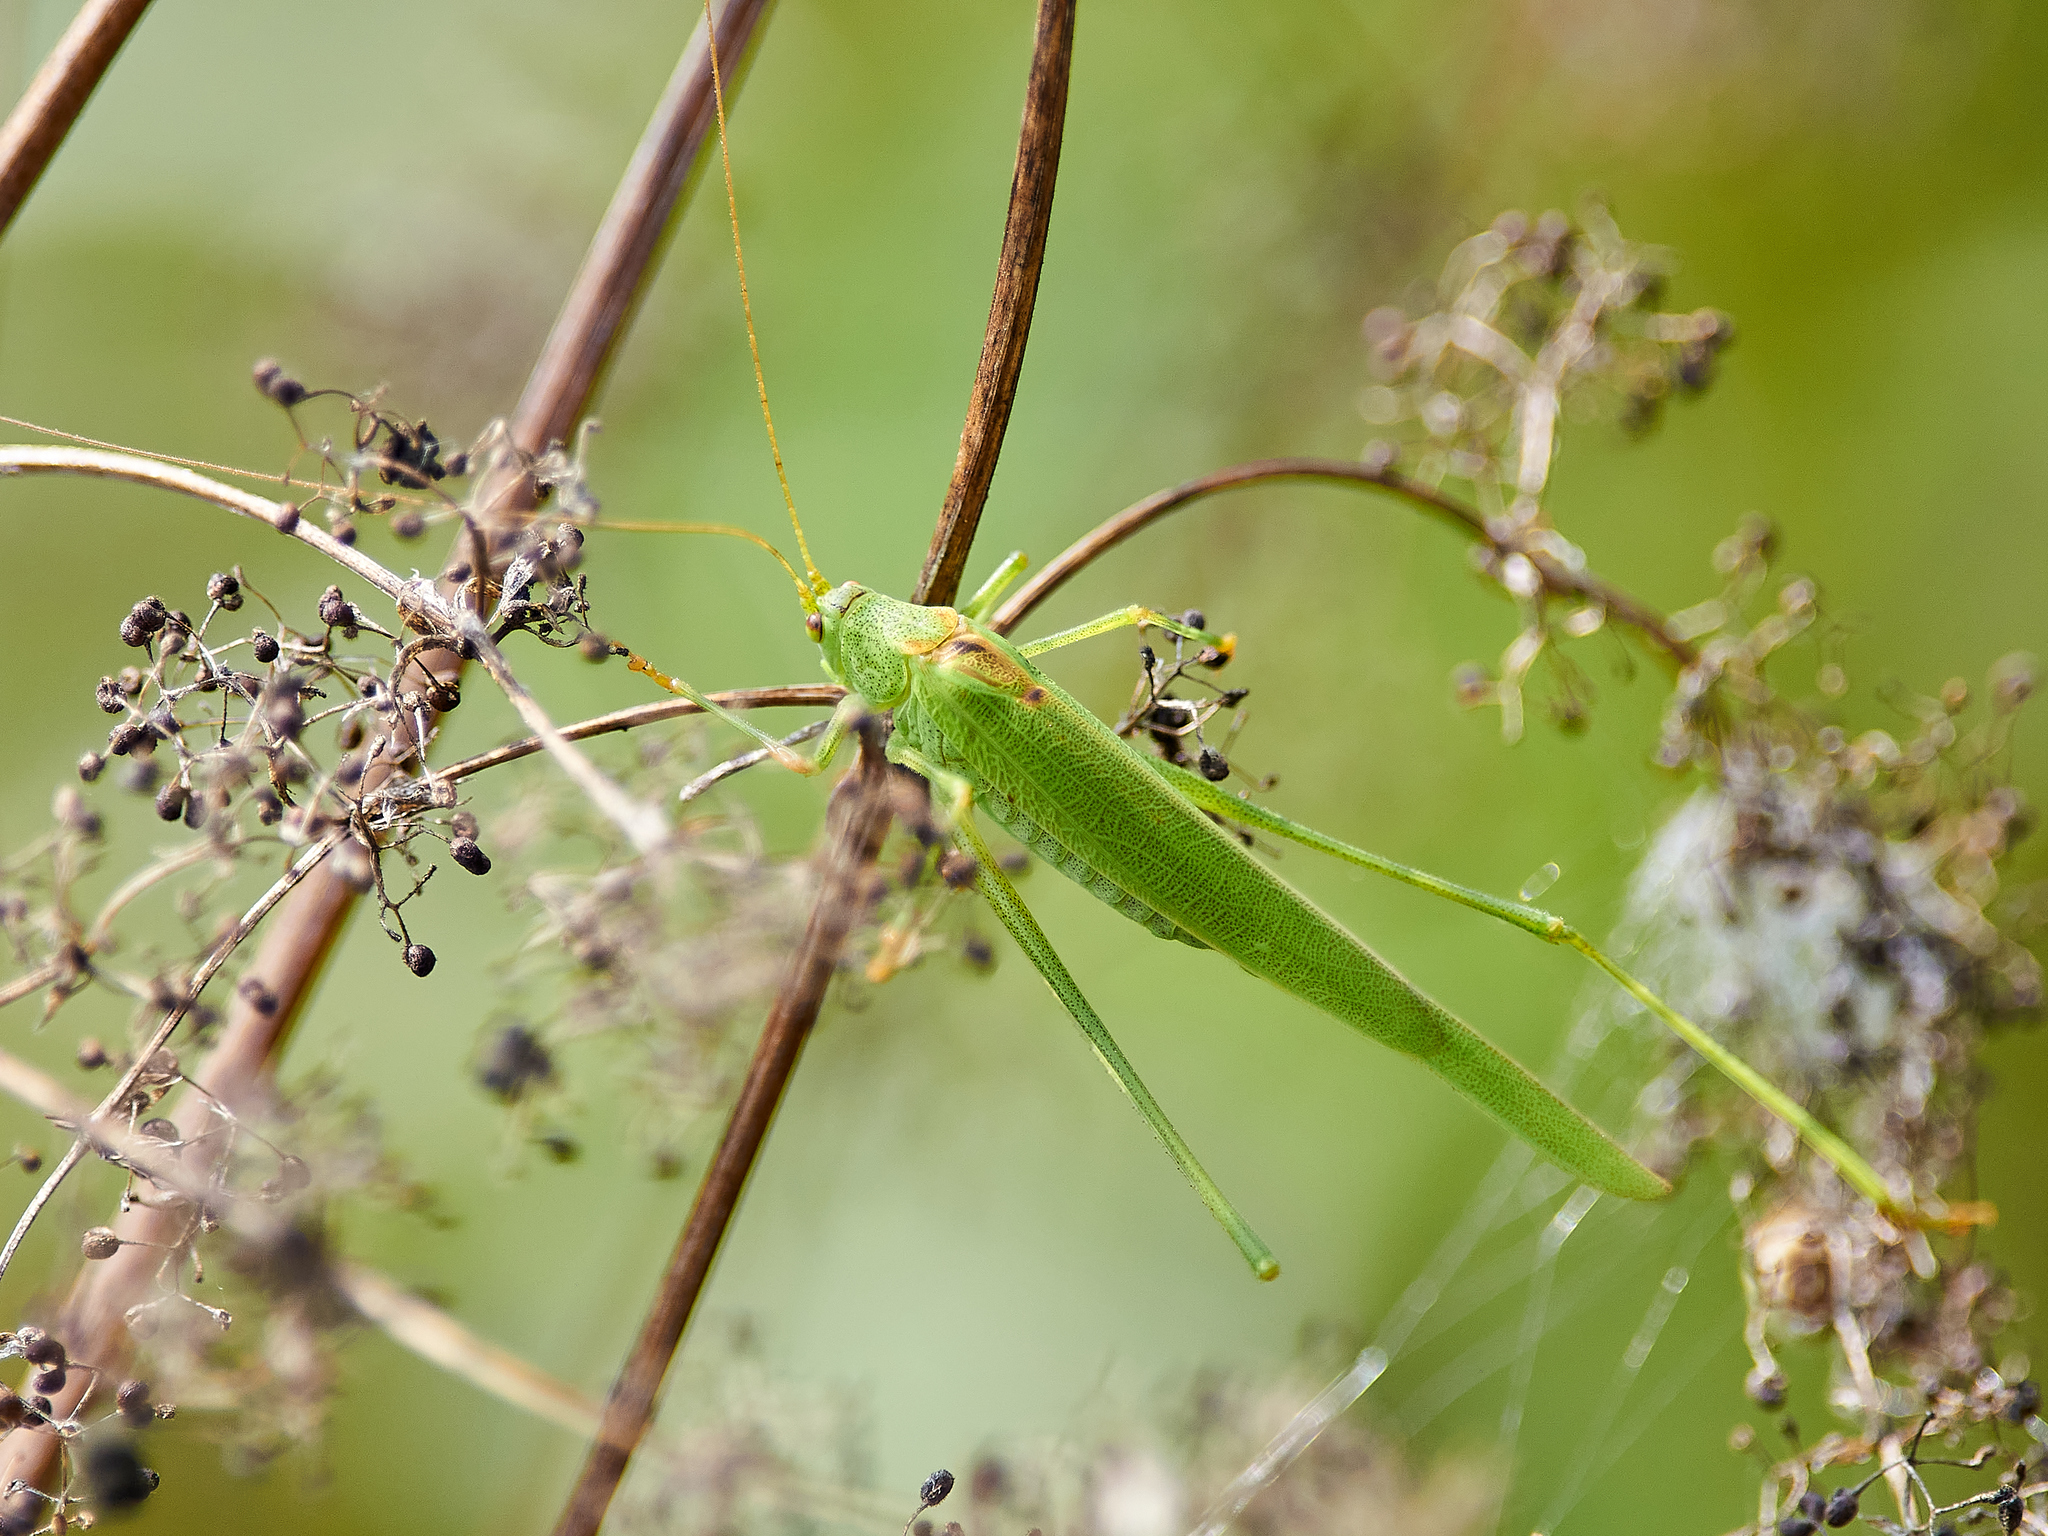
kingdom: Animalia
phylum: Arthropoda
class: Insecta
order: Orthoptera
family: Tettigoniidae
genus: Phaneroptera
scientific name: Phaneroptera falcata
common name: Sickle-bearing bush-cricket
